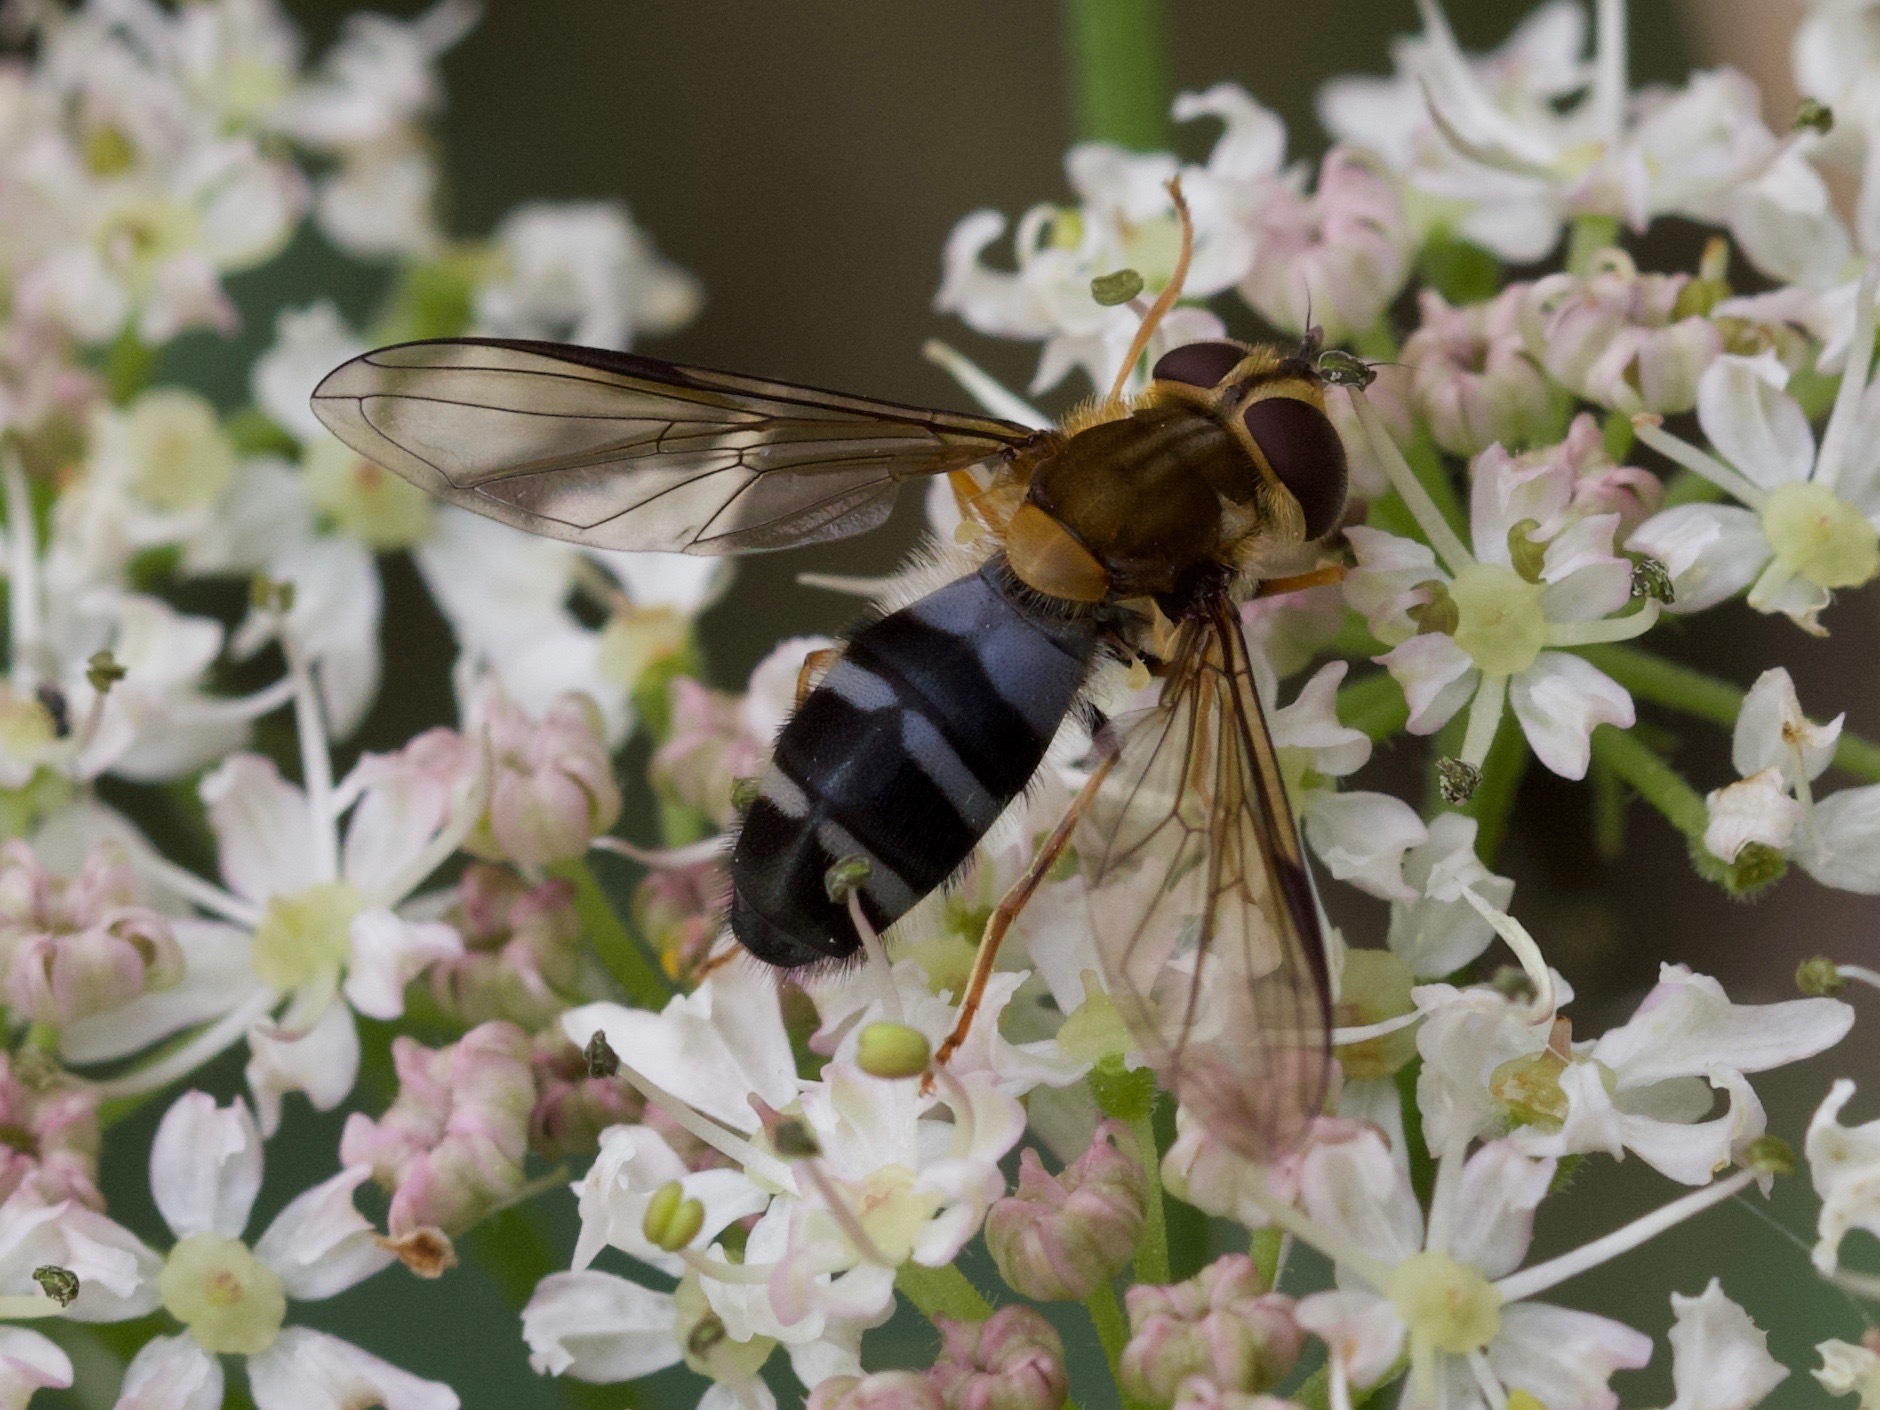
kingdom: Animalia
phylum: Arthropoda
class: Insecta
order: Diptera
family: Syrphidae
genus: Leucozona
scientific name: Leucozona glaucia
